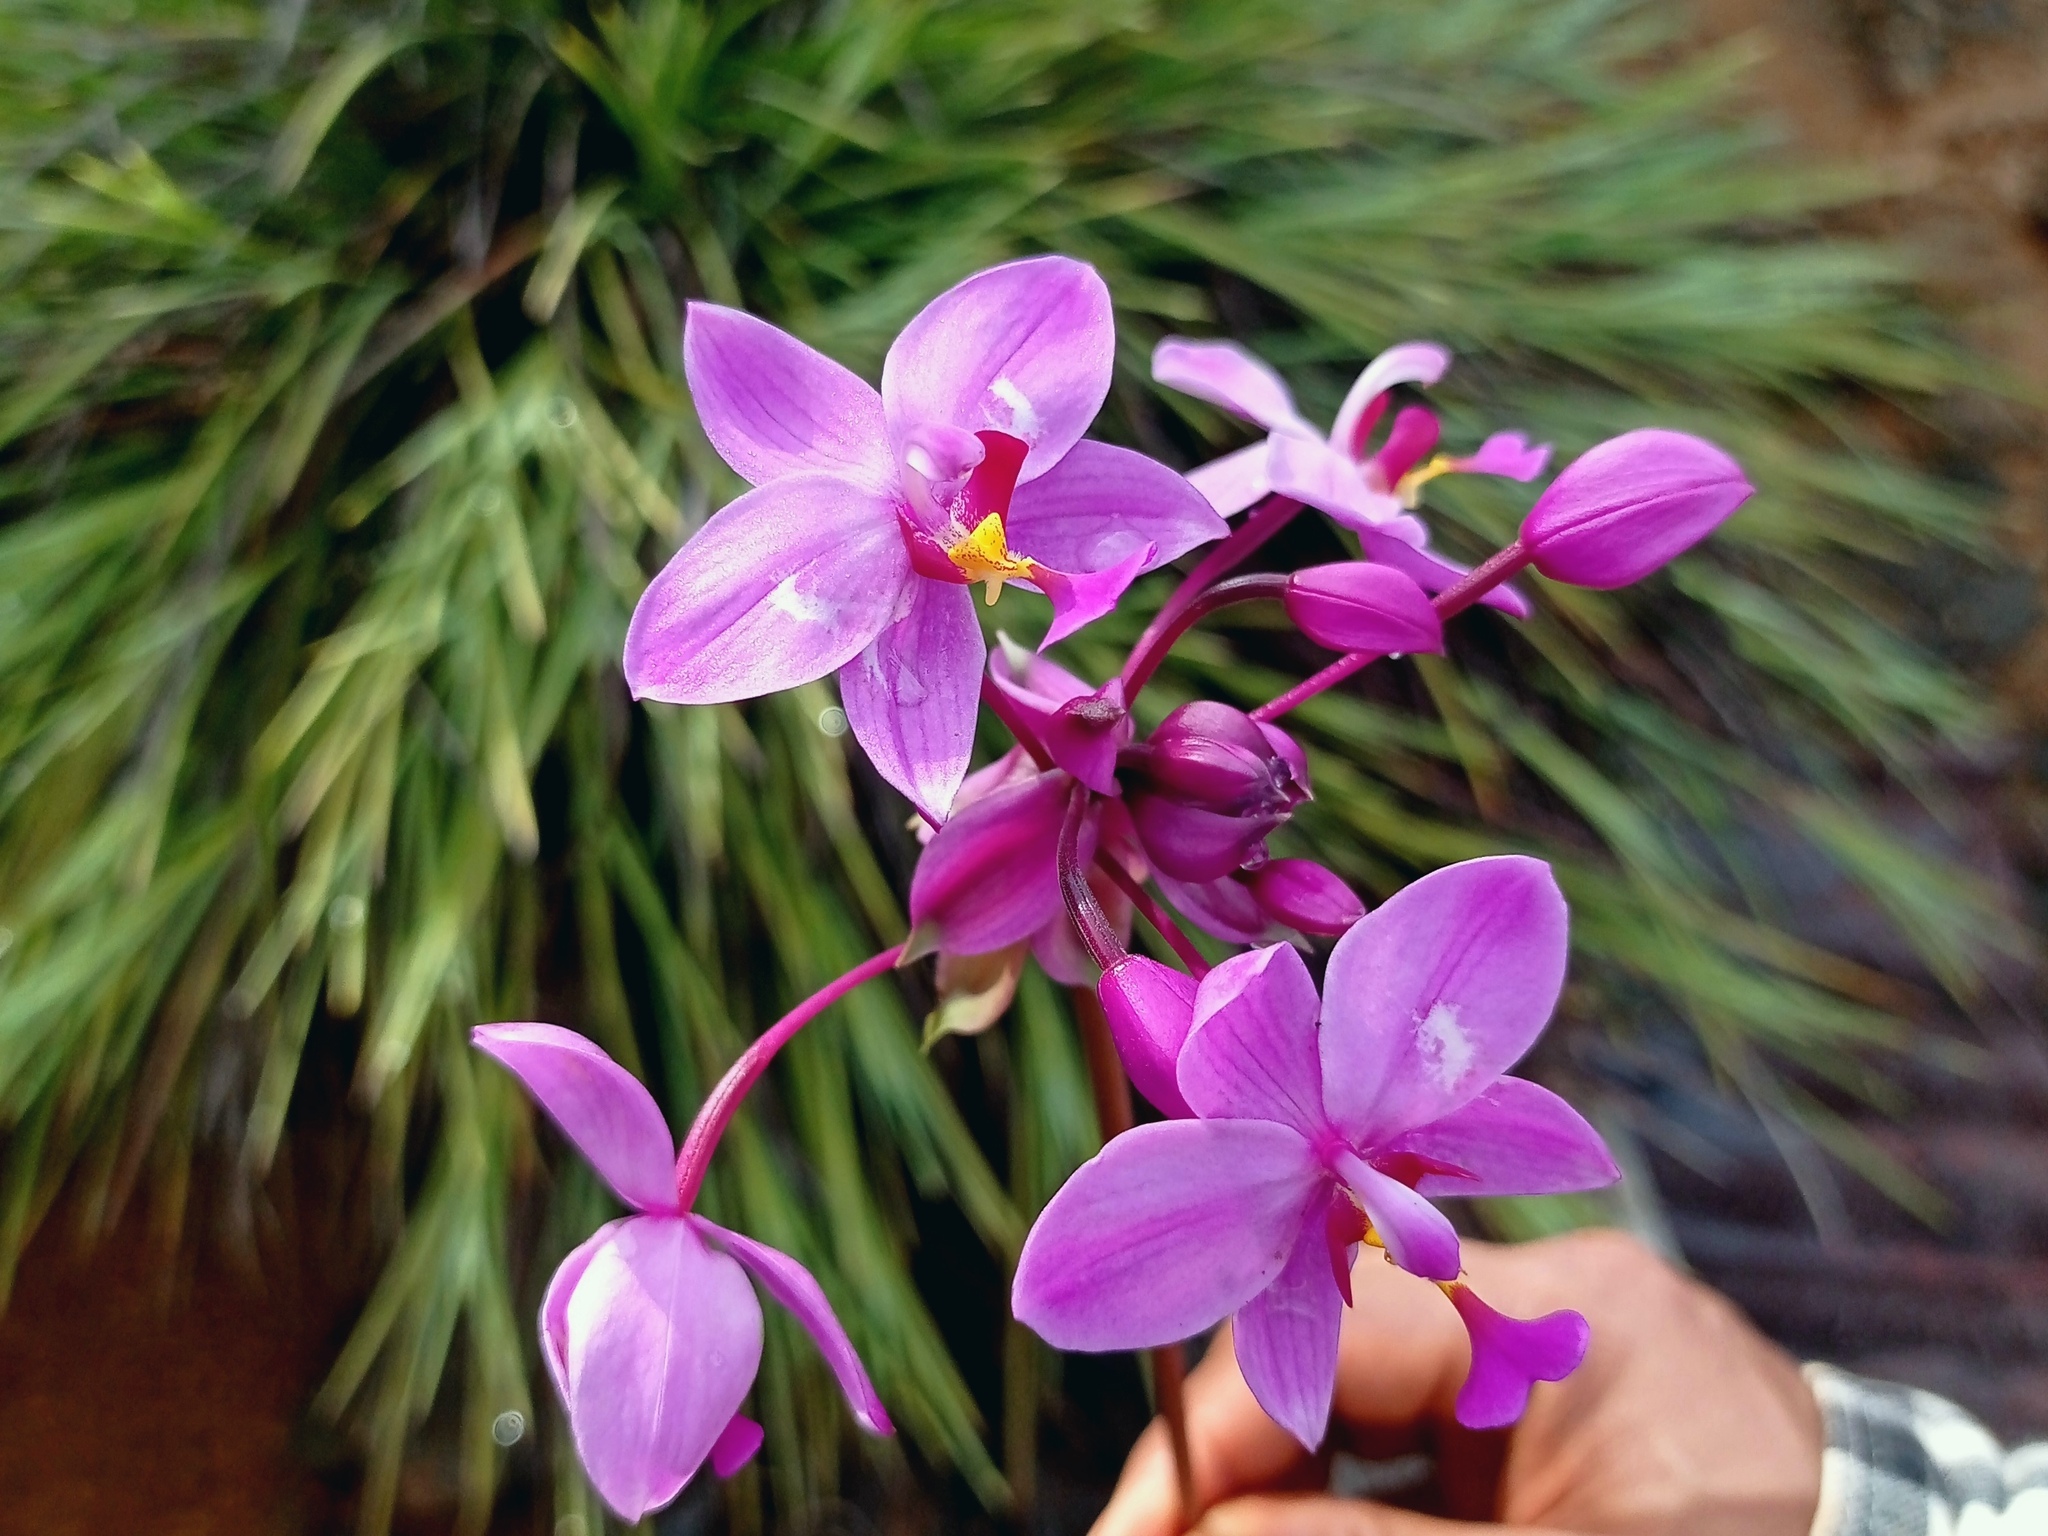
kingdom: Plantae
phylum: Tracheophyta
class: Liliopsida
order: Asparagales
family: Orchidaceae
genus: Spathoglottis
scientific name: Spathoglottis plicata
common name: Philippine ground orchid
